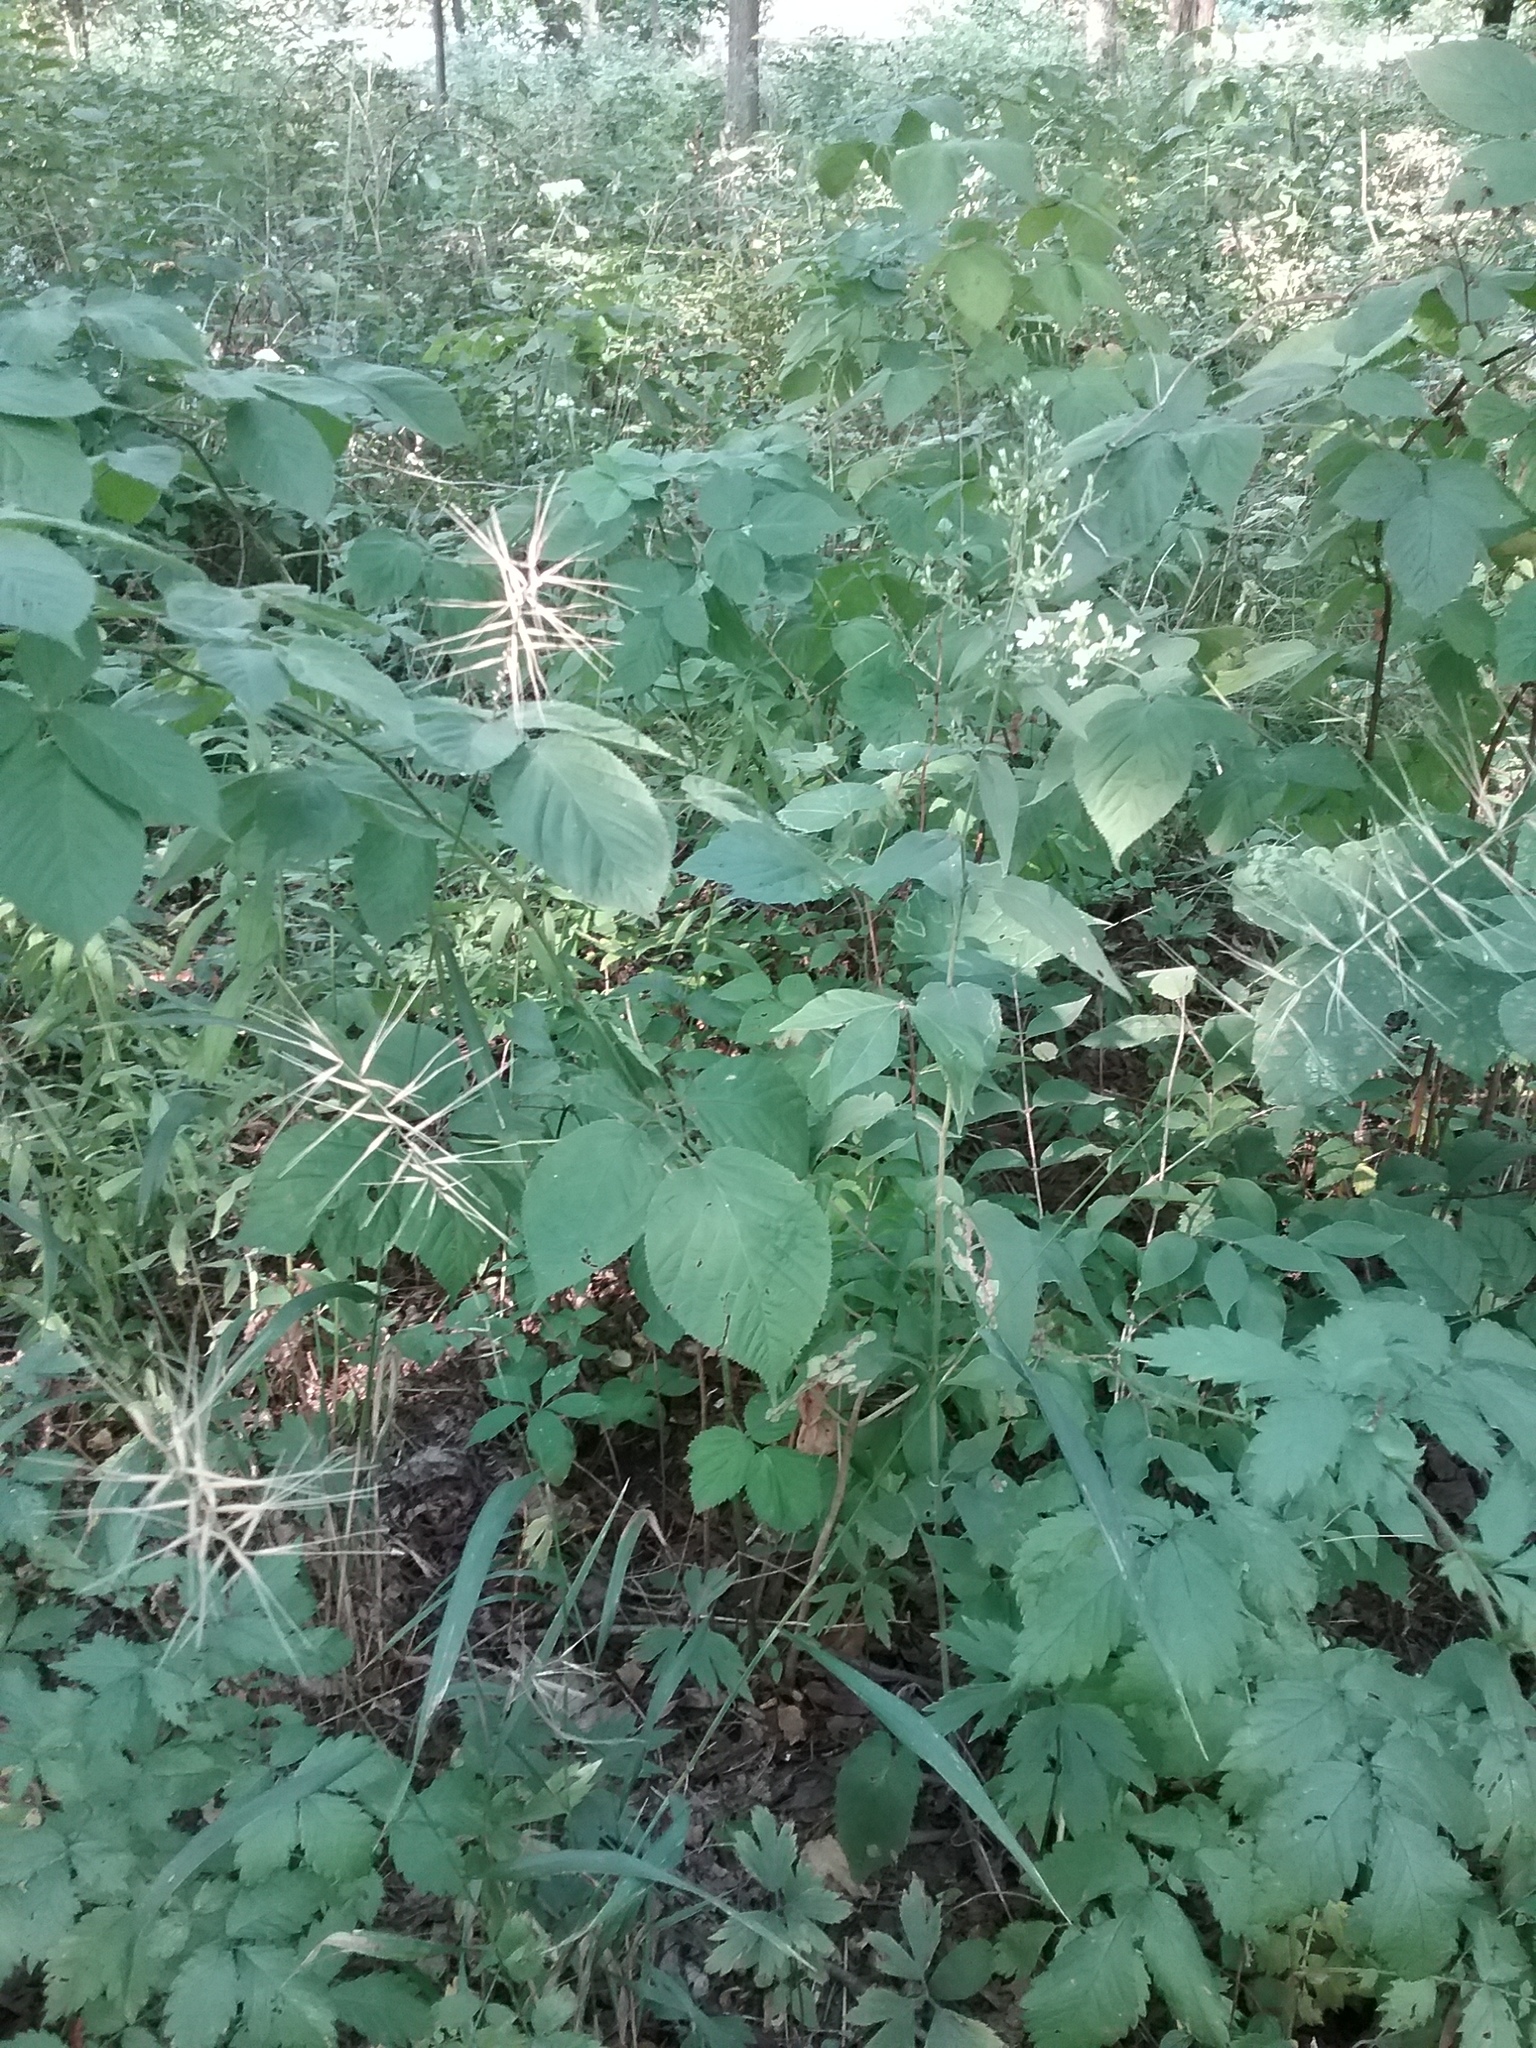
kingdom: Plantae
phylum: Tracheophyta
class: Liliopsida
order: Poales
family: Poaceae
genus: Elymus
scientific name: Elymus hystrix
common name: Bottlebrush grass
